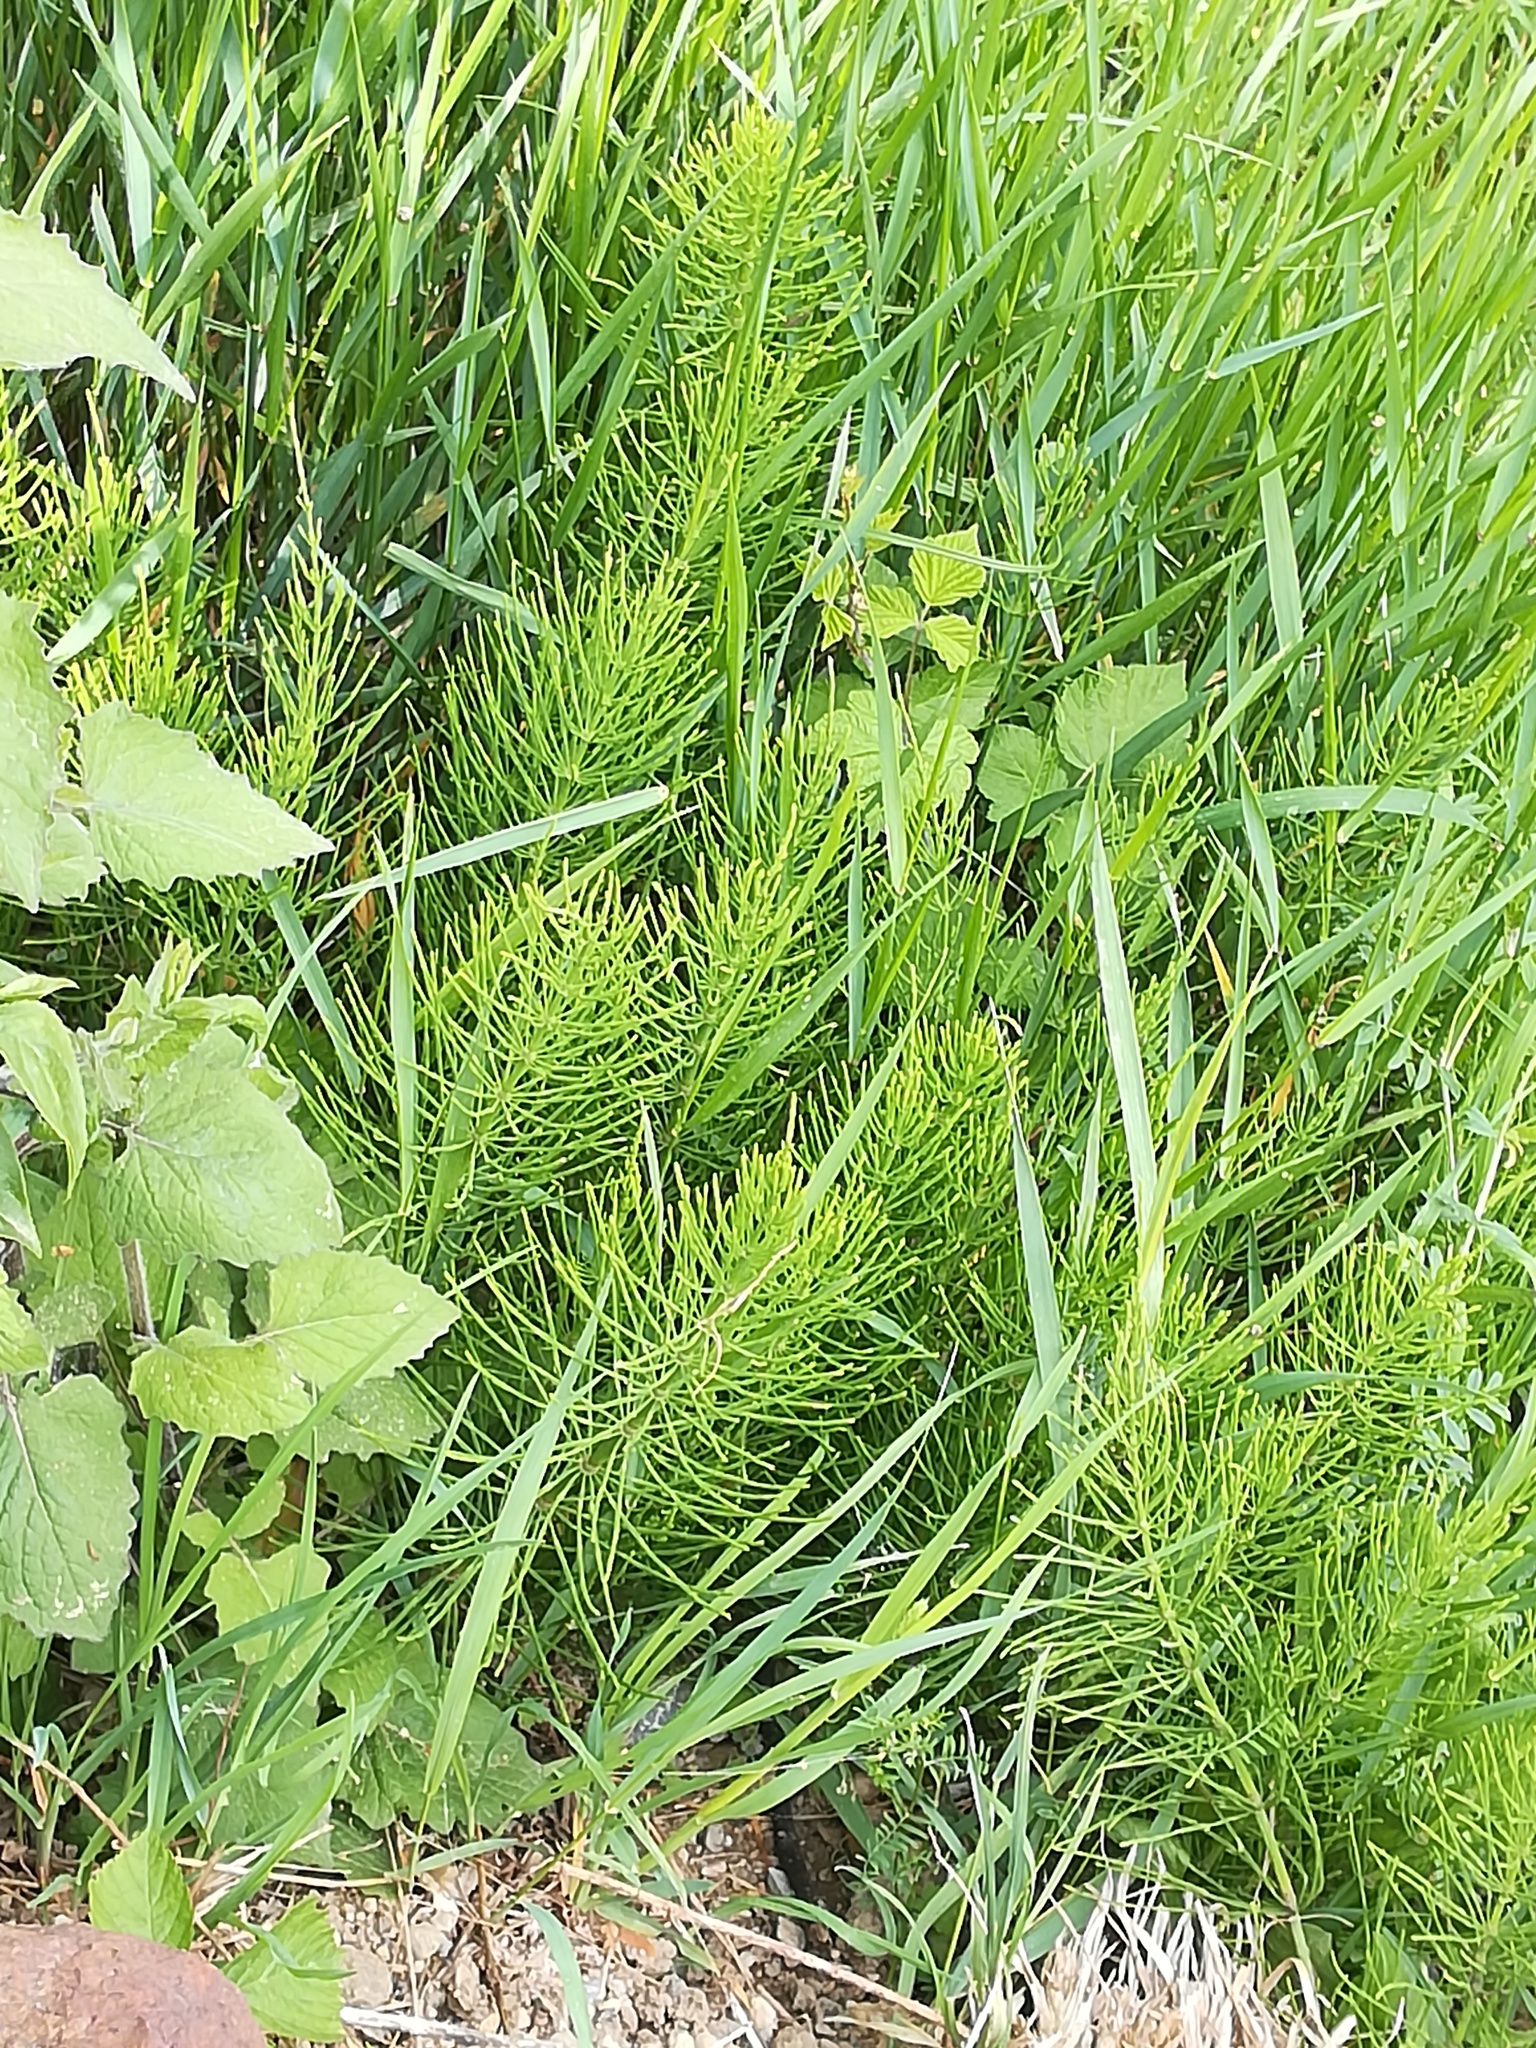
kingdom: Plantae
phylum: Tracheophyta
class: Polypodiopsida
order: Equisetales
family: Equisetaceae
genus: Equisetum
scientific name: Equisetum arvense
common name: Field horsetail
